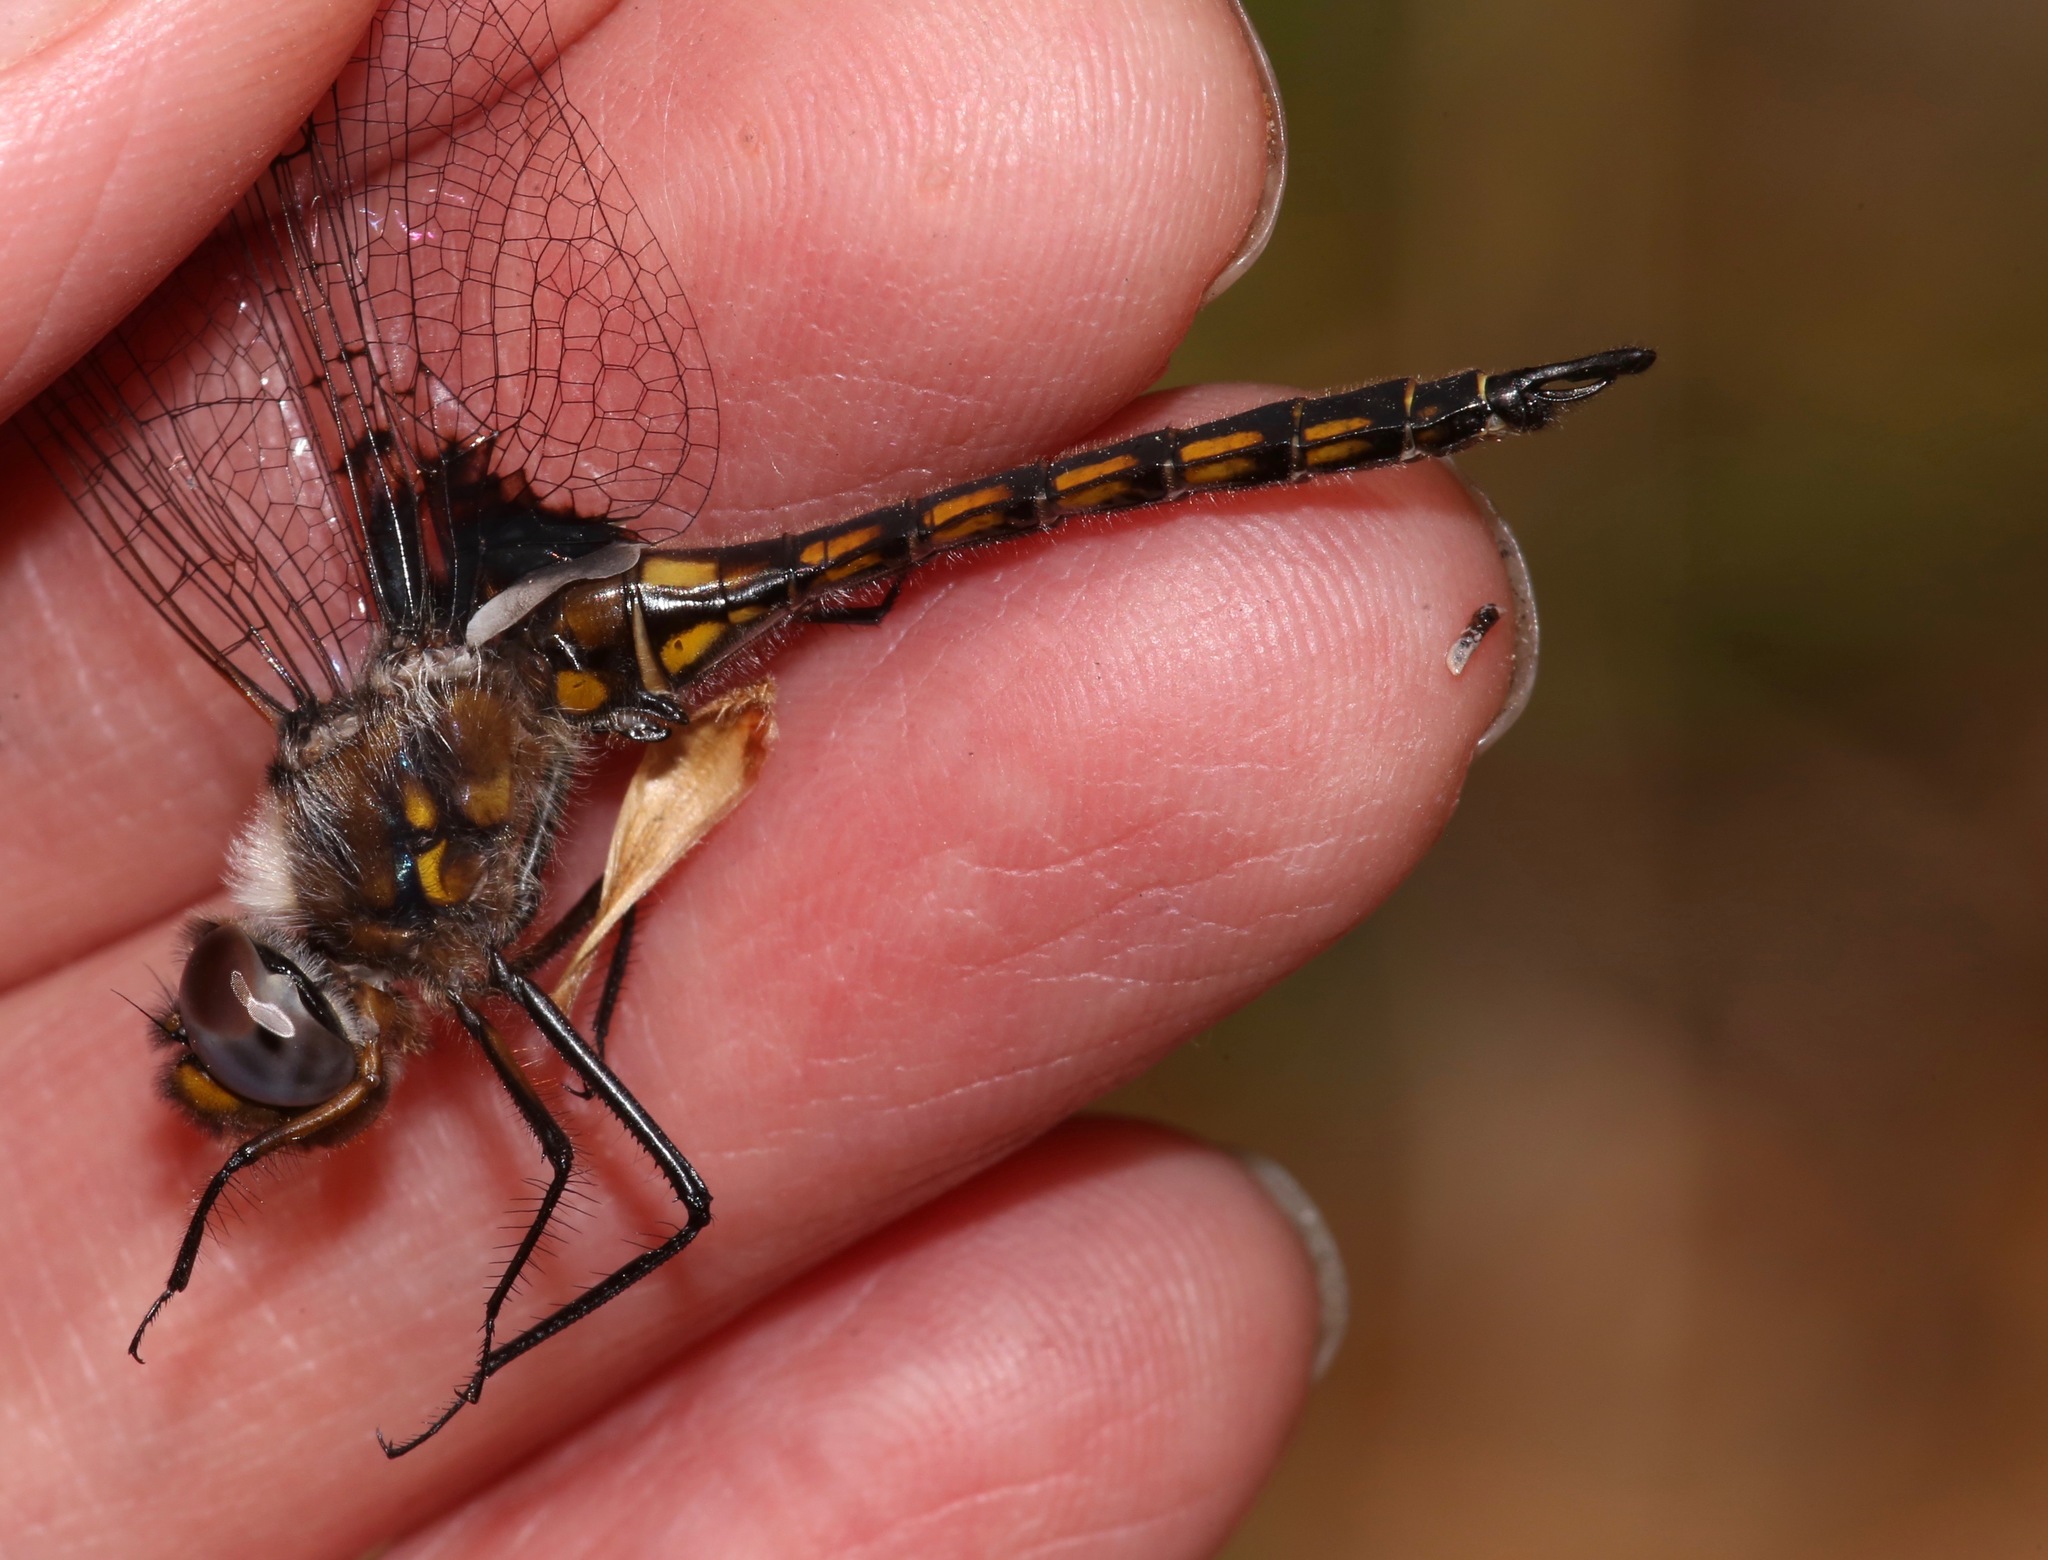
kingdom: Animalia
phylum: Arthropoda
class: Insecta
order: Odonata
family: Corduliidae
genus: Epitheca
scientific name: Epitheca cynosura
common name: Common baskettail
